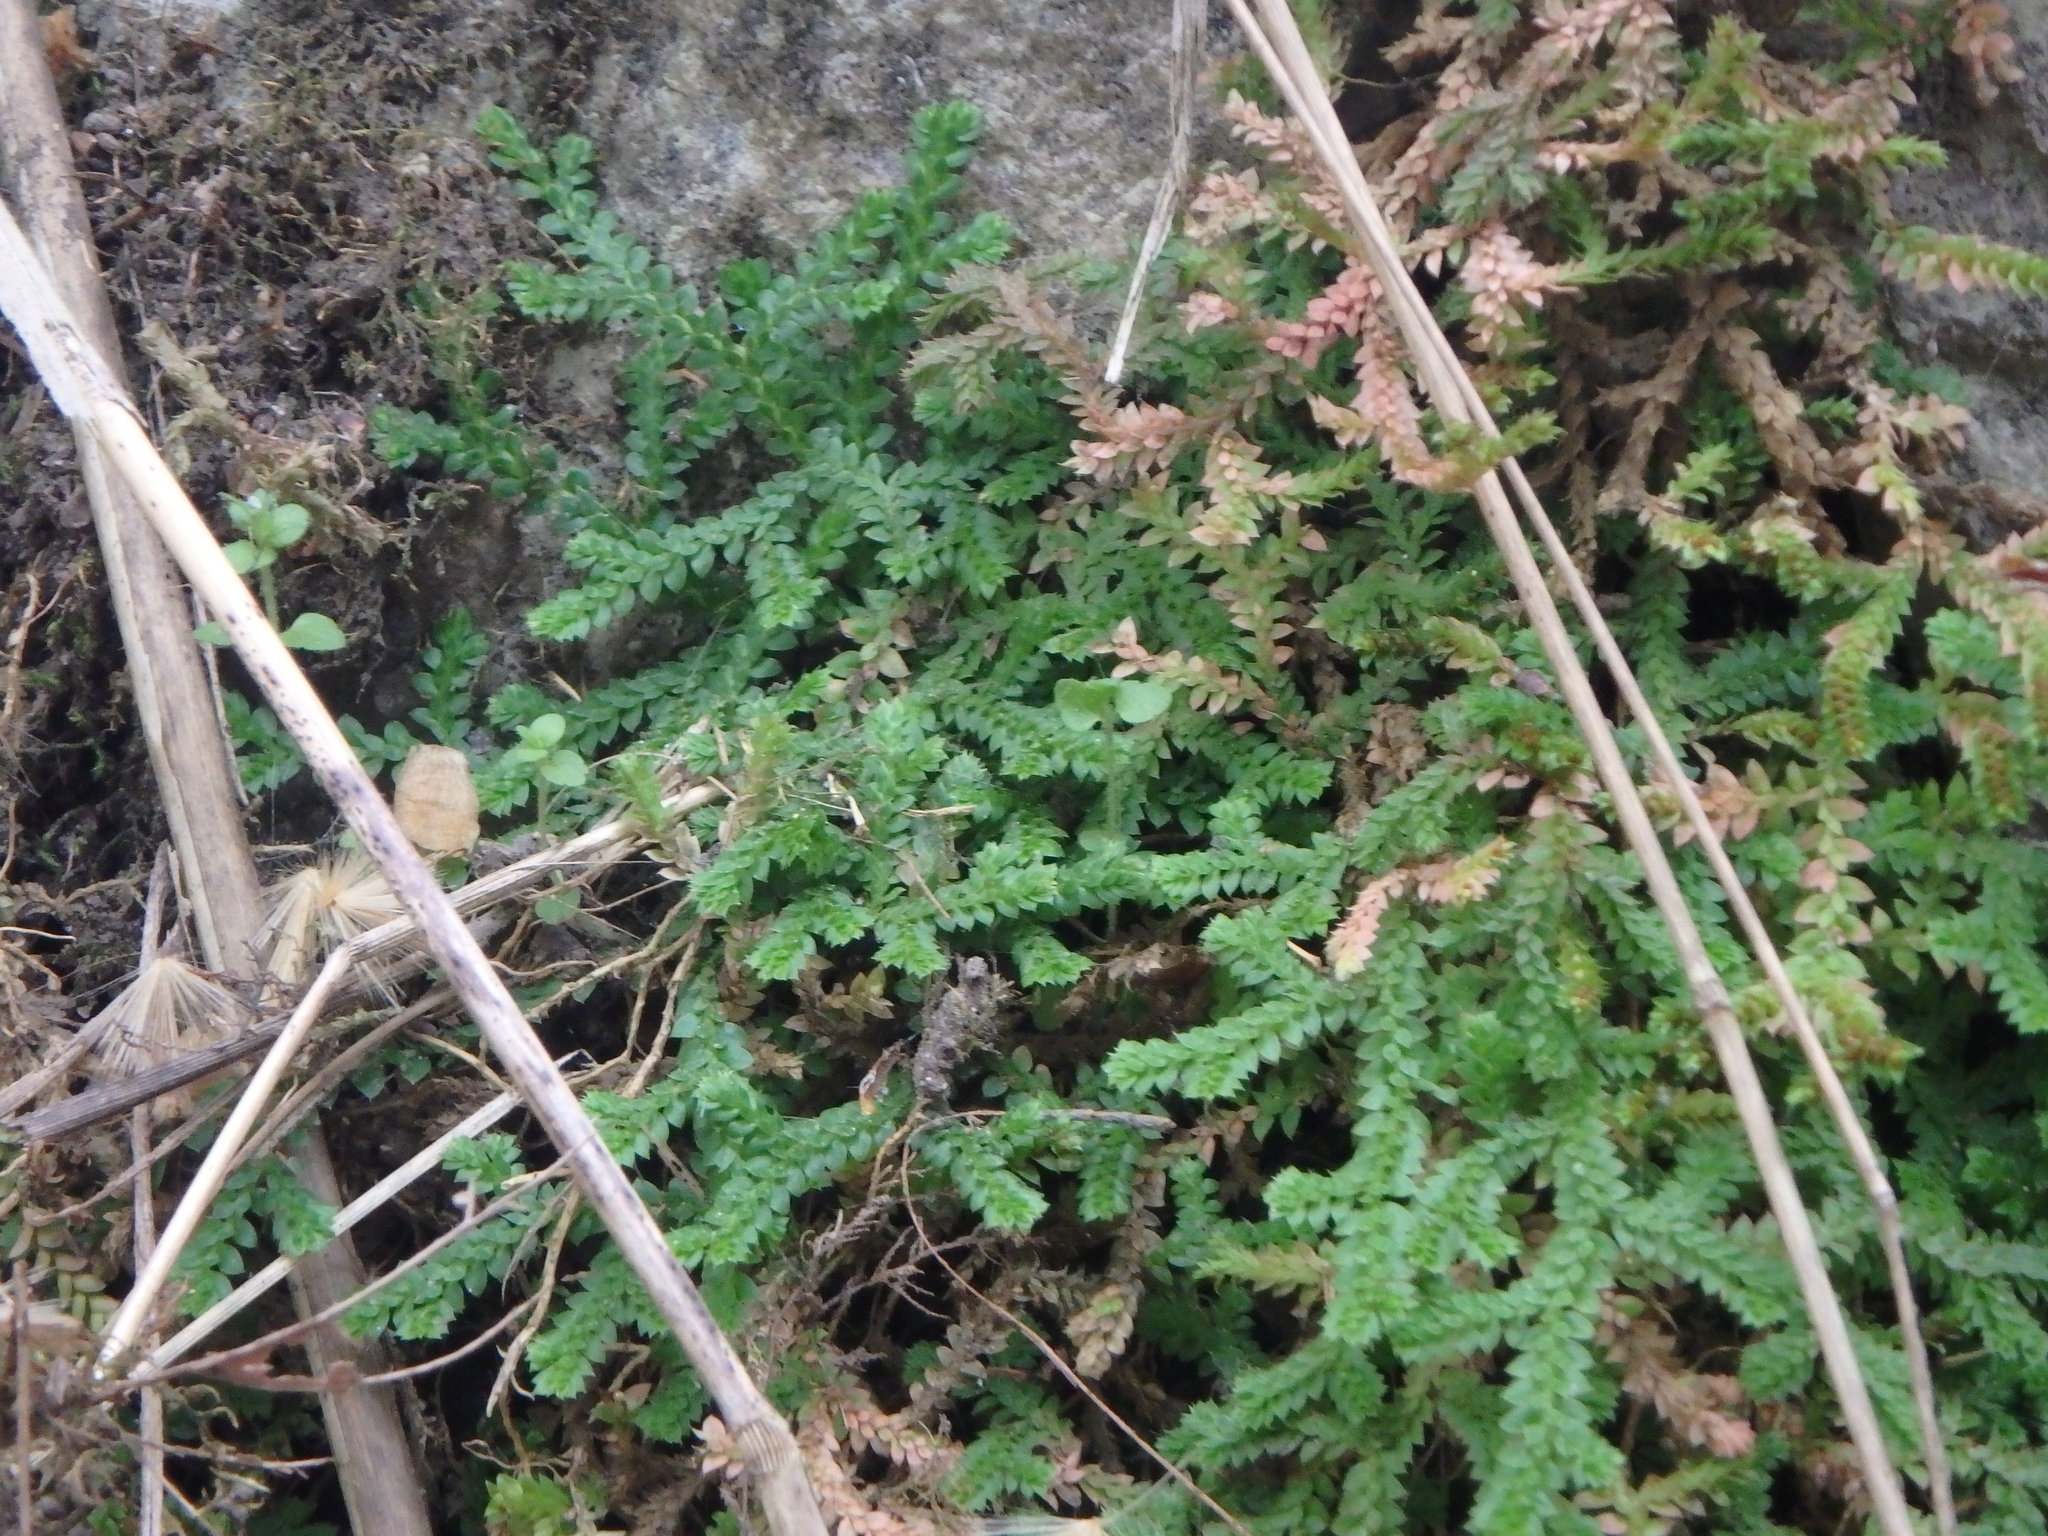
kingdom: Plantae
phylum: Tracheophyta
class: Lycopodiopsida
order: Selaginellales
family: Selaginellaceae
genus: Selaginella
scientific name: Selaginella denticulata
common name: Toothed-leaved clubmoss
